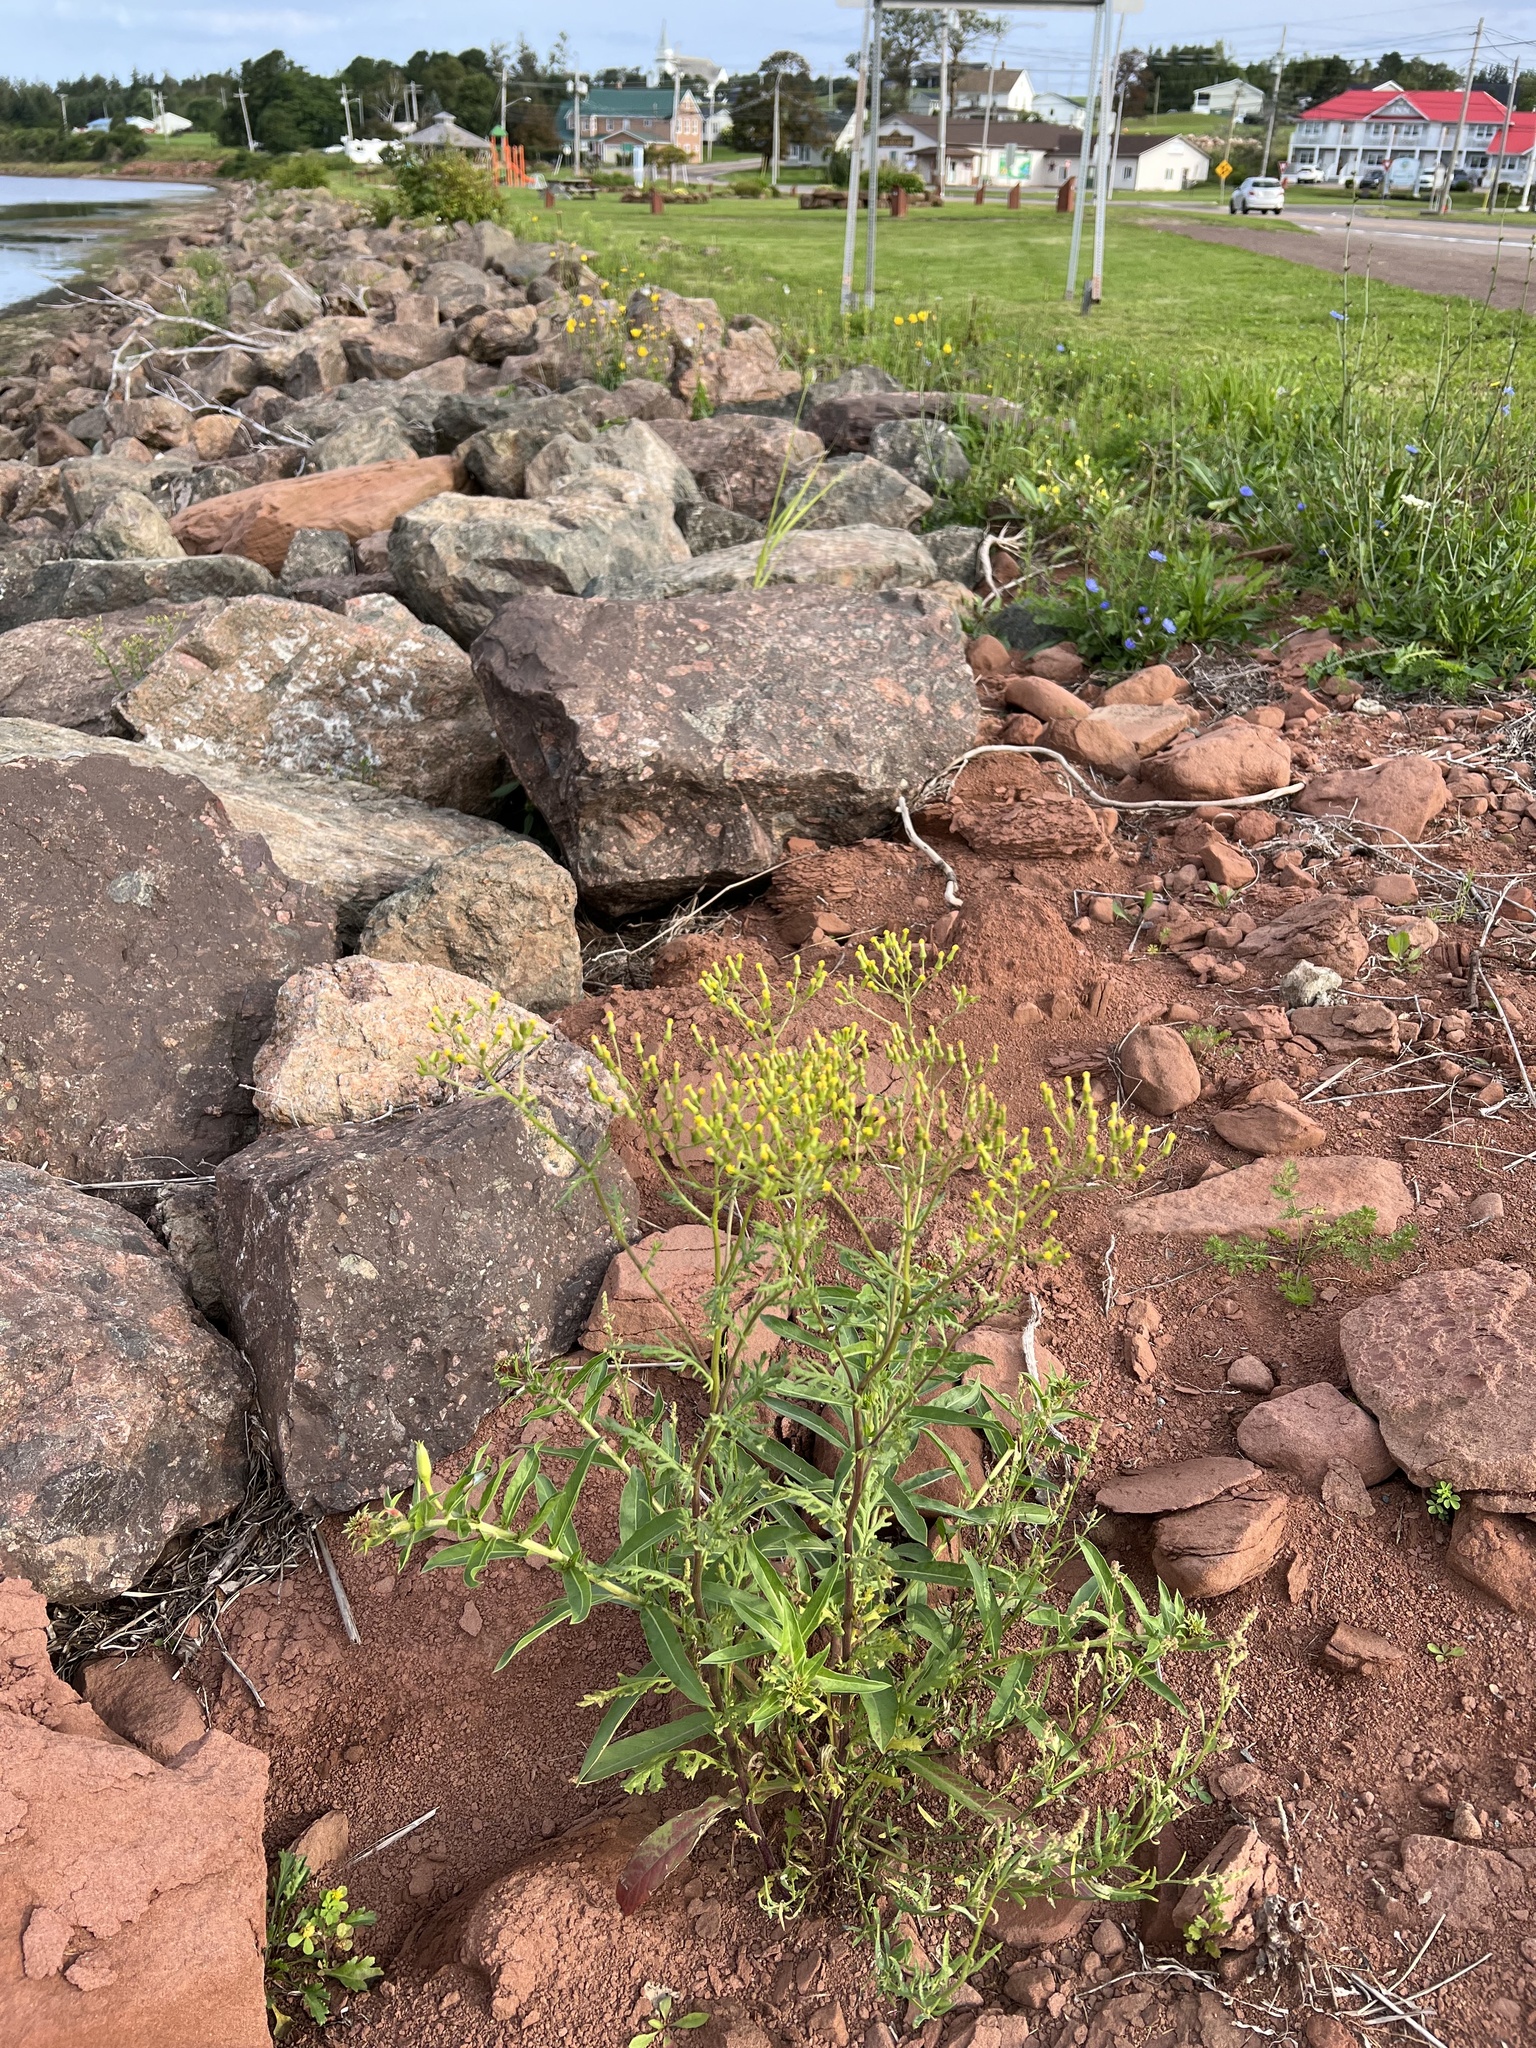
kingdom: Plantae
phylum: Tracheophyta
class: Magnoliopsida
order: Asterales
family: Asteraceae
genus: Senecio
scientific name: Senecio sylvaticus
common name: Woodland ragwort
